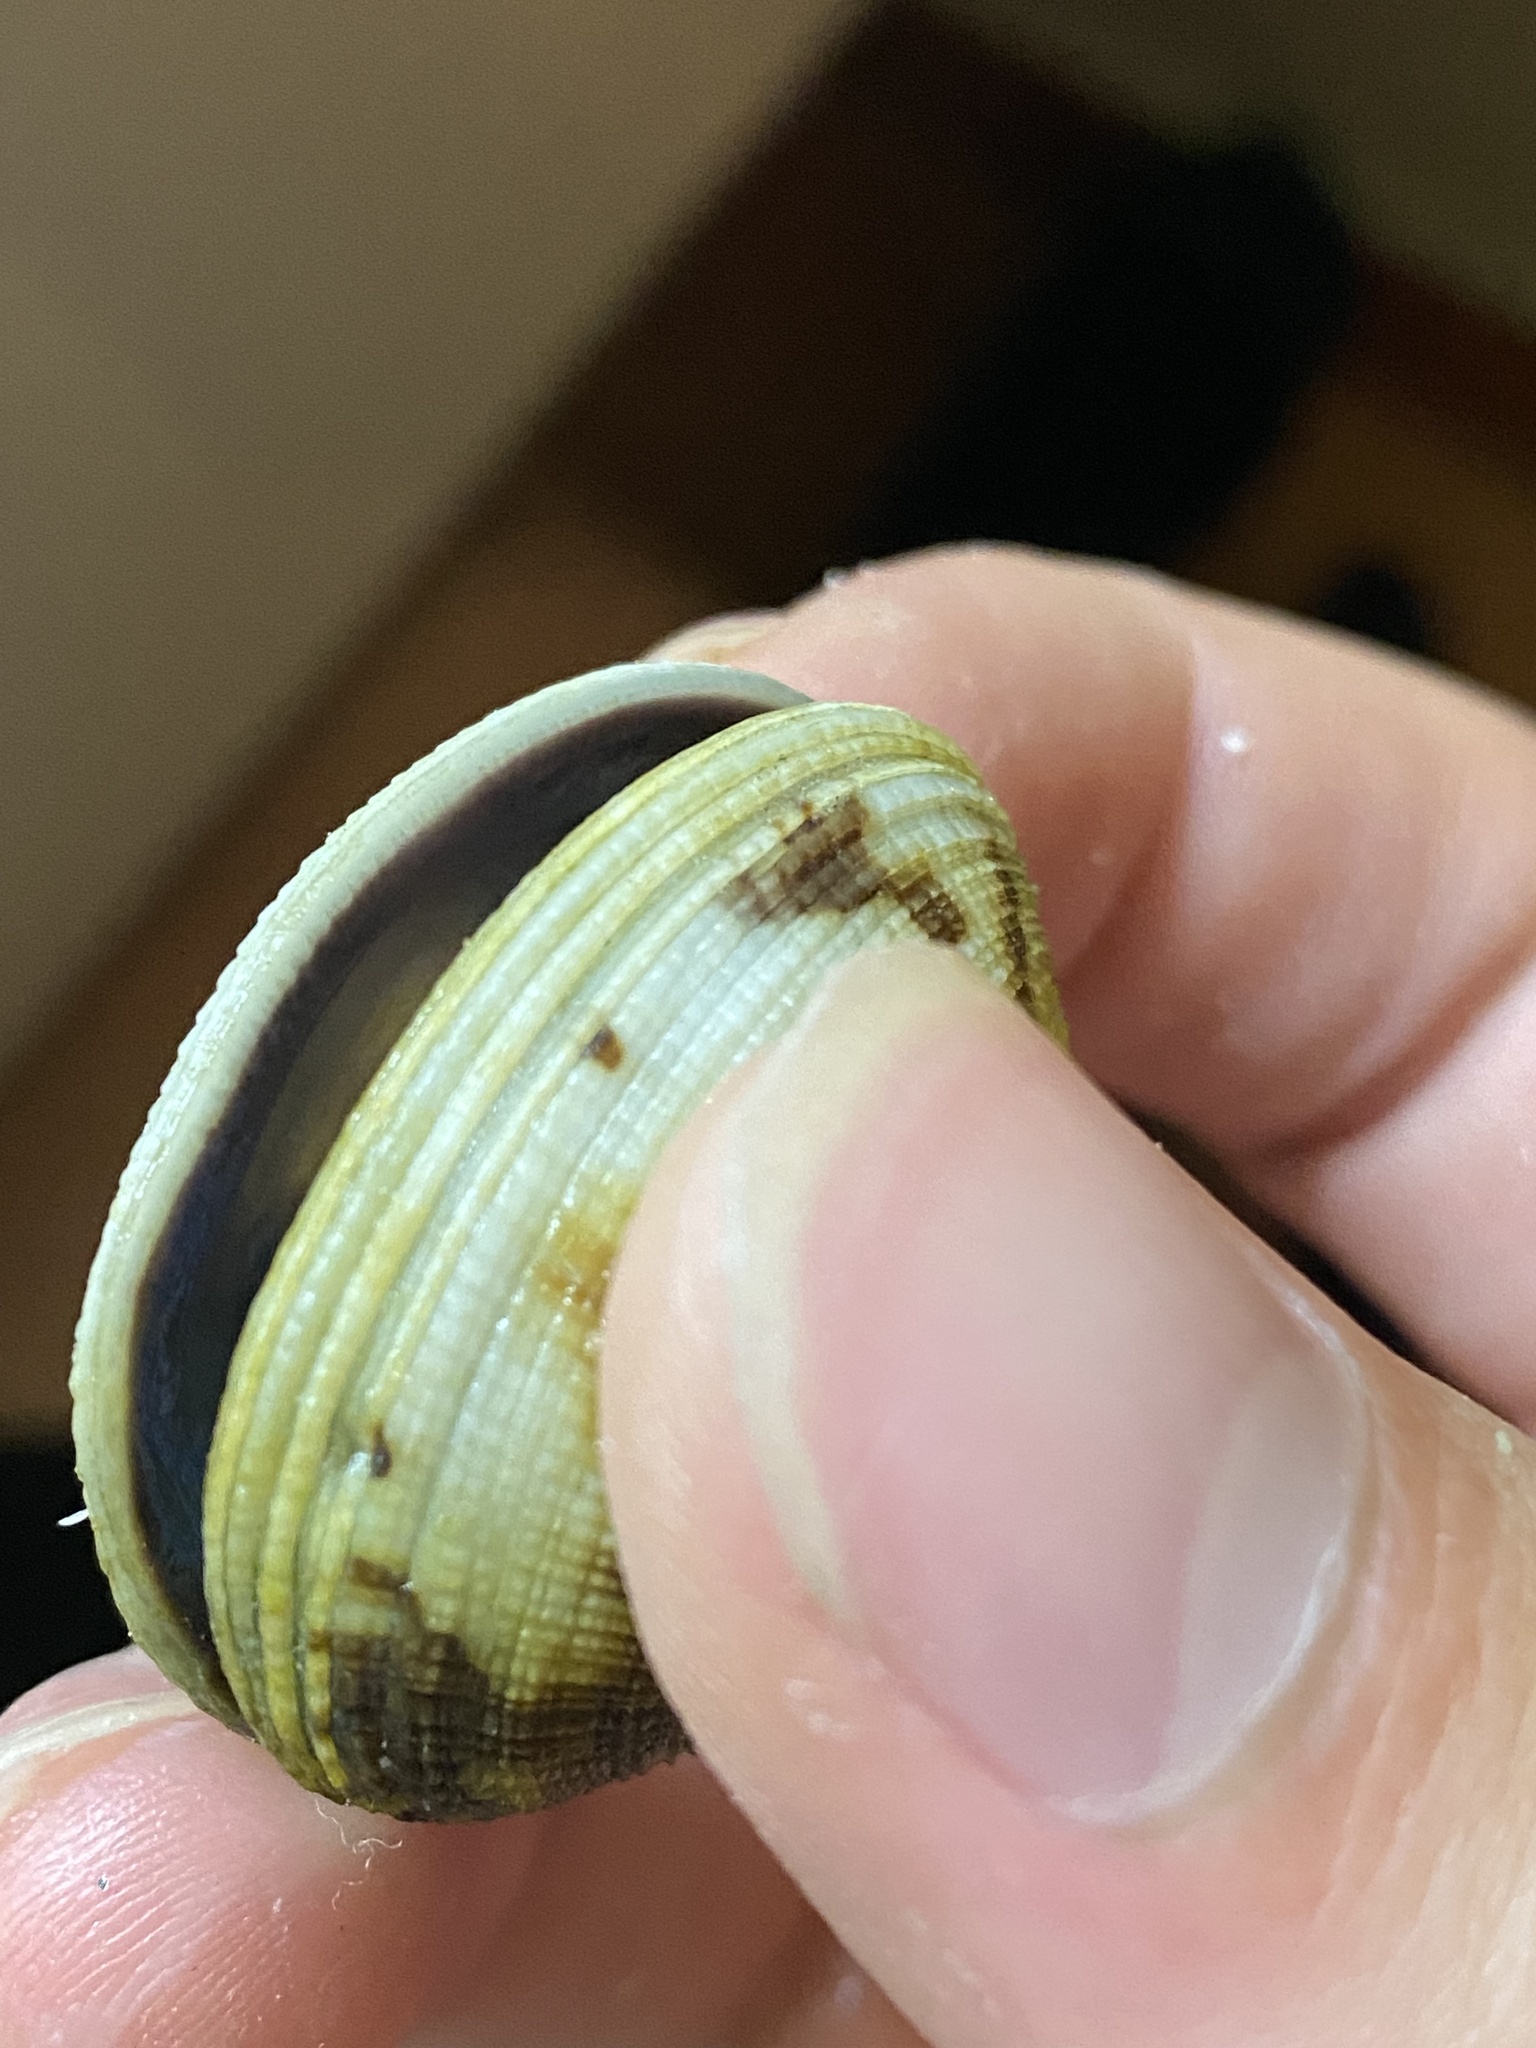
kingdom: Animalia
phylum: Mollusca
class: Bivalvia
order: Venerida
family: Veneridae
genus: Leukoma
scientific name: Leukoma grata
